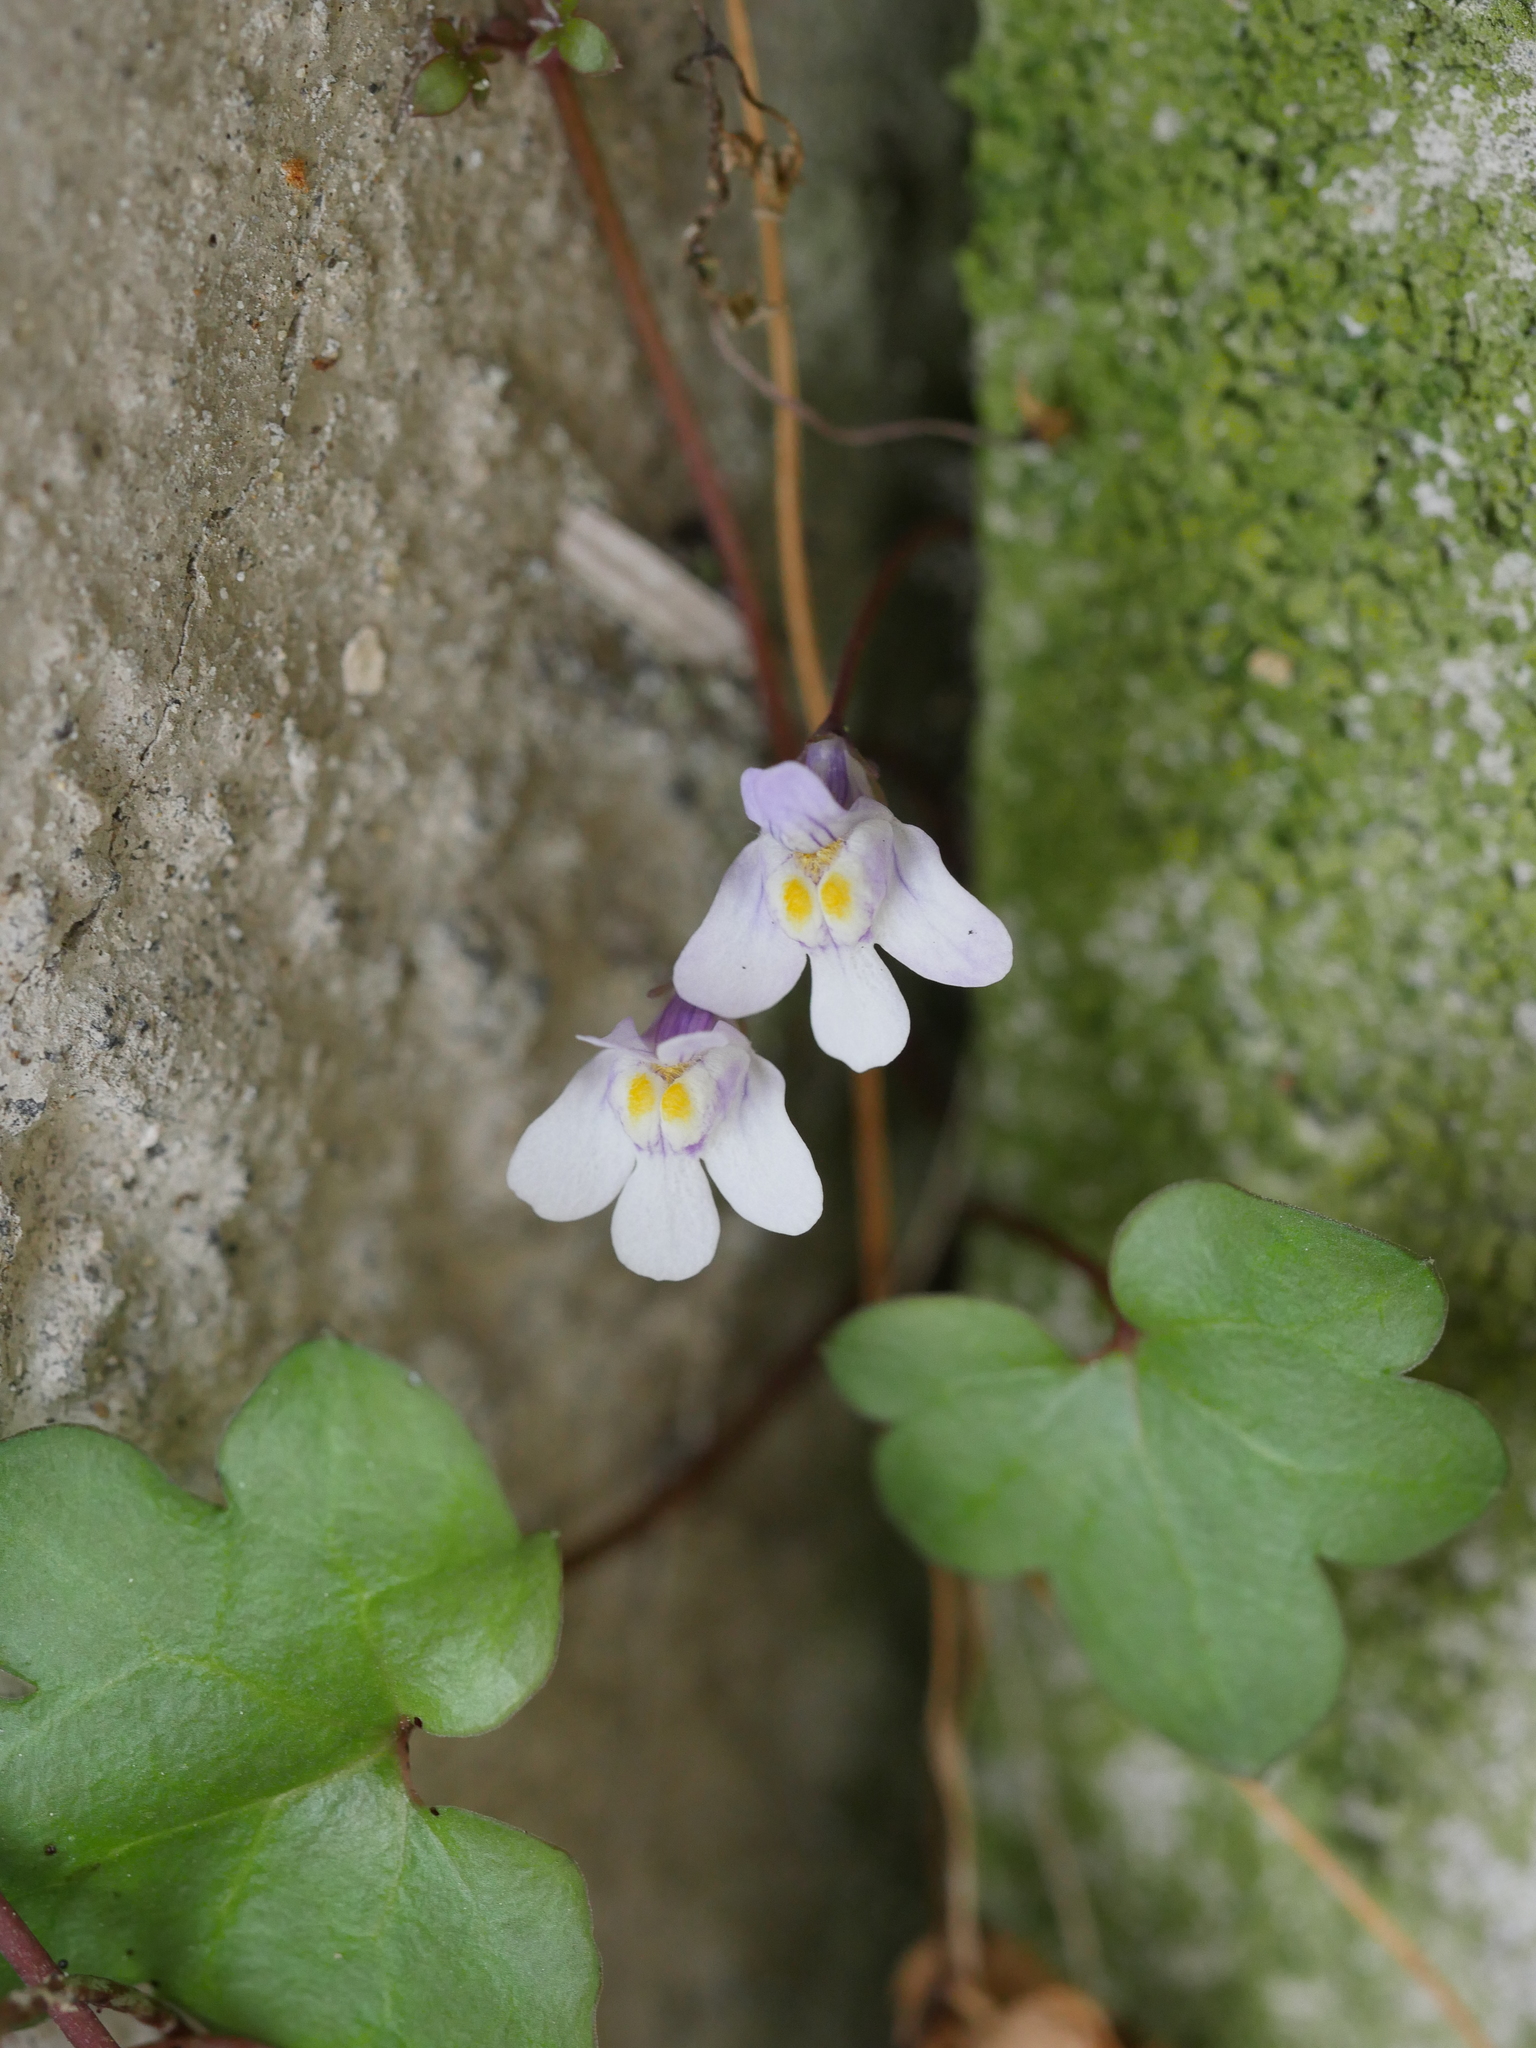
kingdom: Plantae
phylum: Tracheophyta
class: Magnoliopsida
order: Lamiales
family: Plantaginaceae
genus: Cymbalaria
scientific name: Cymbalaria muralis
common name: Ivy-leaved toadflax
